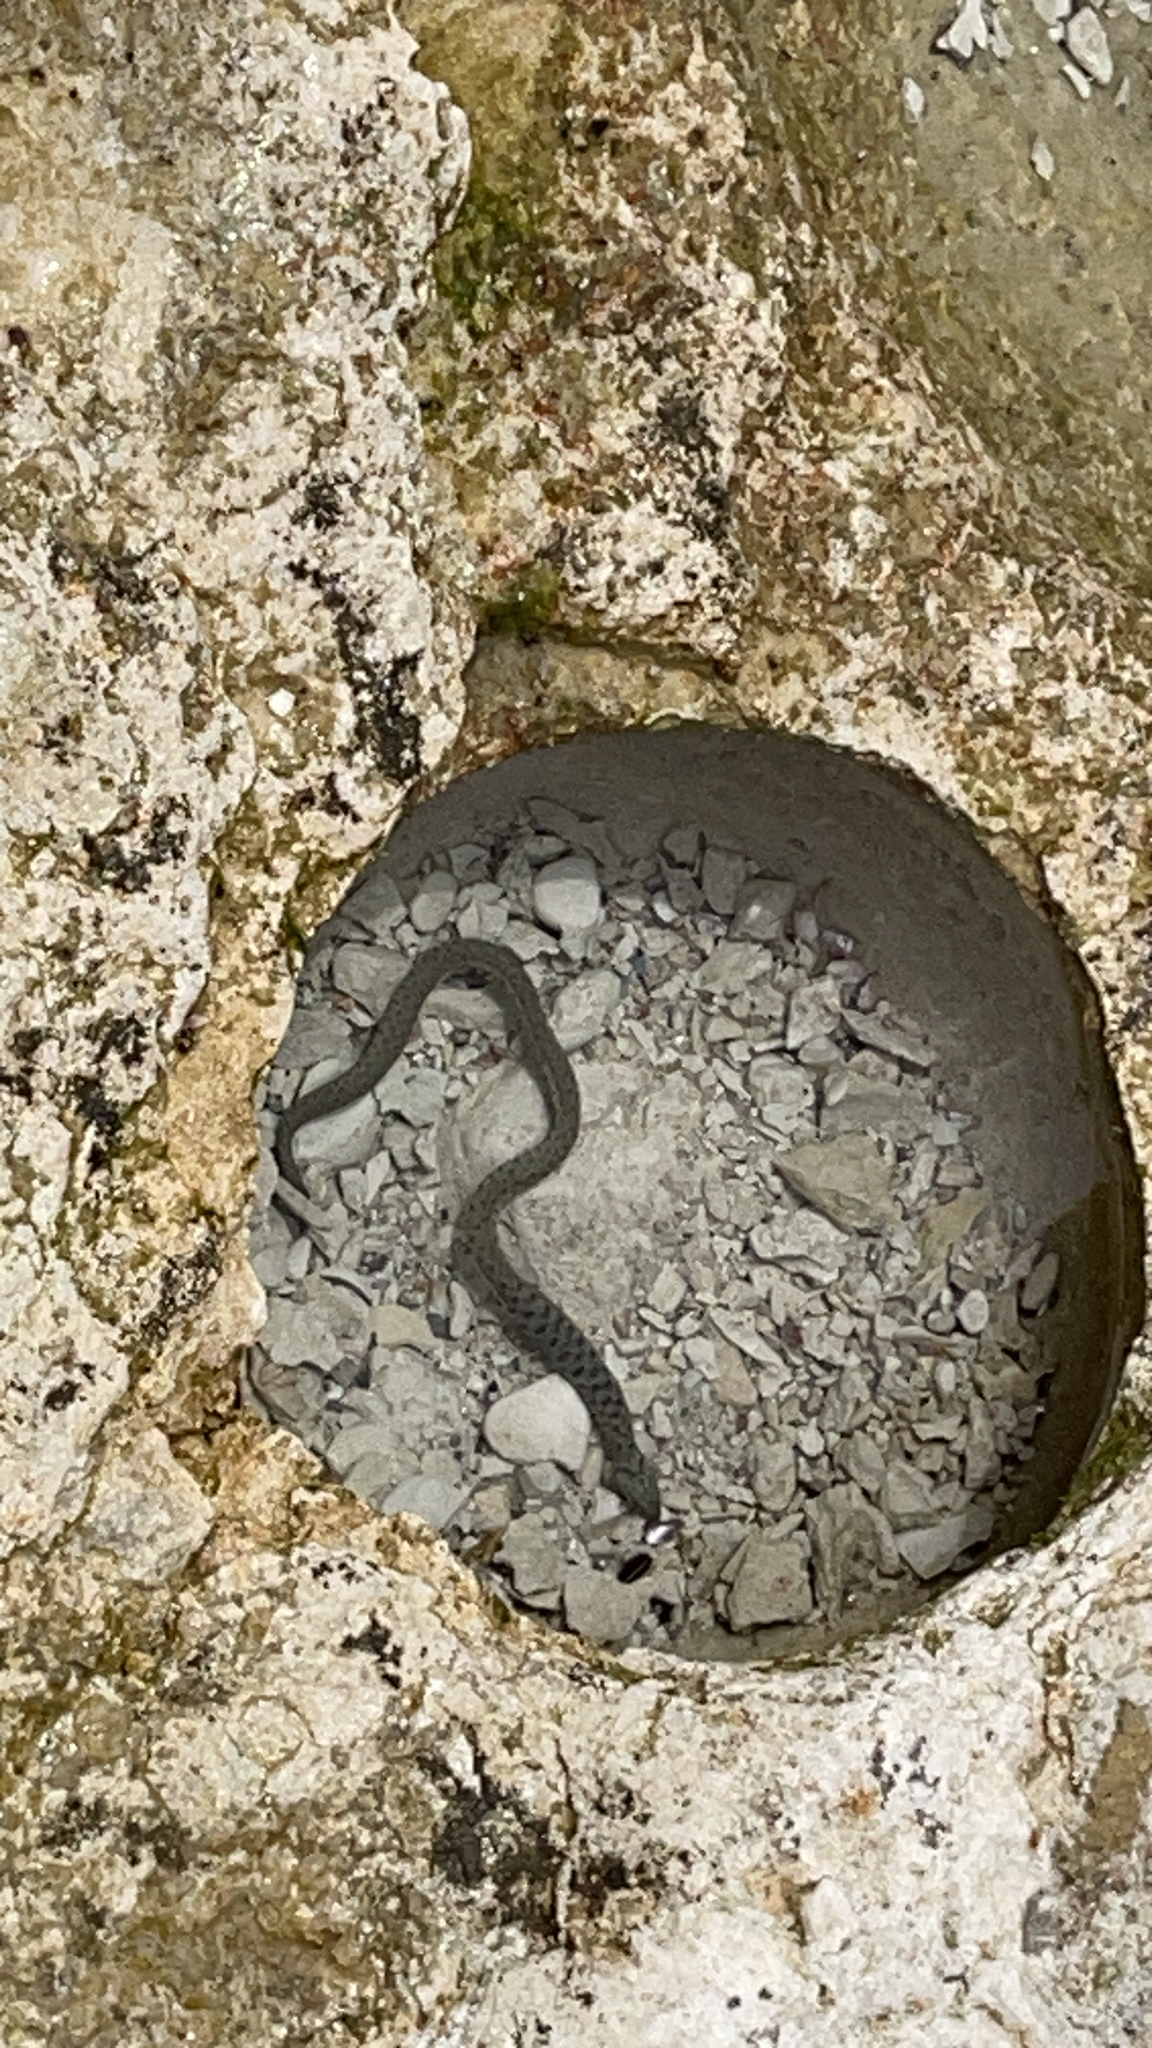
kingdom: Animalia
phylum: Chordata
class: Squamata
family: Colubridae
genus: Natrix
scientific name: Natrix tessellata
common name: Dice snake
